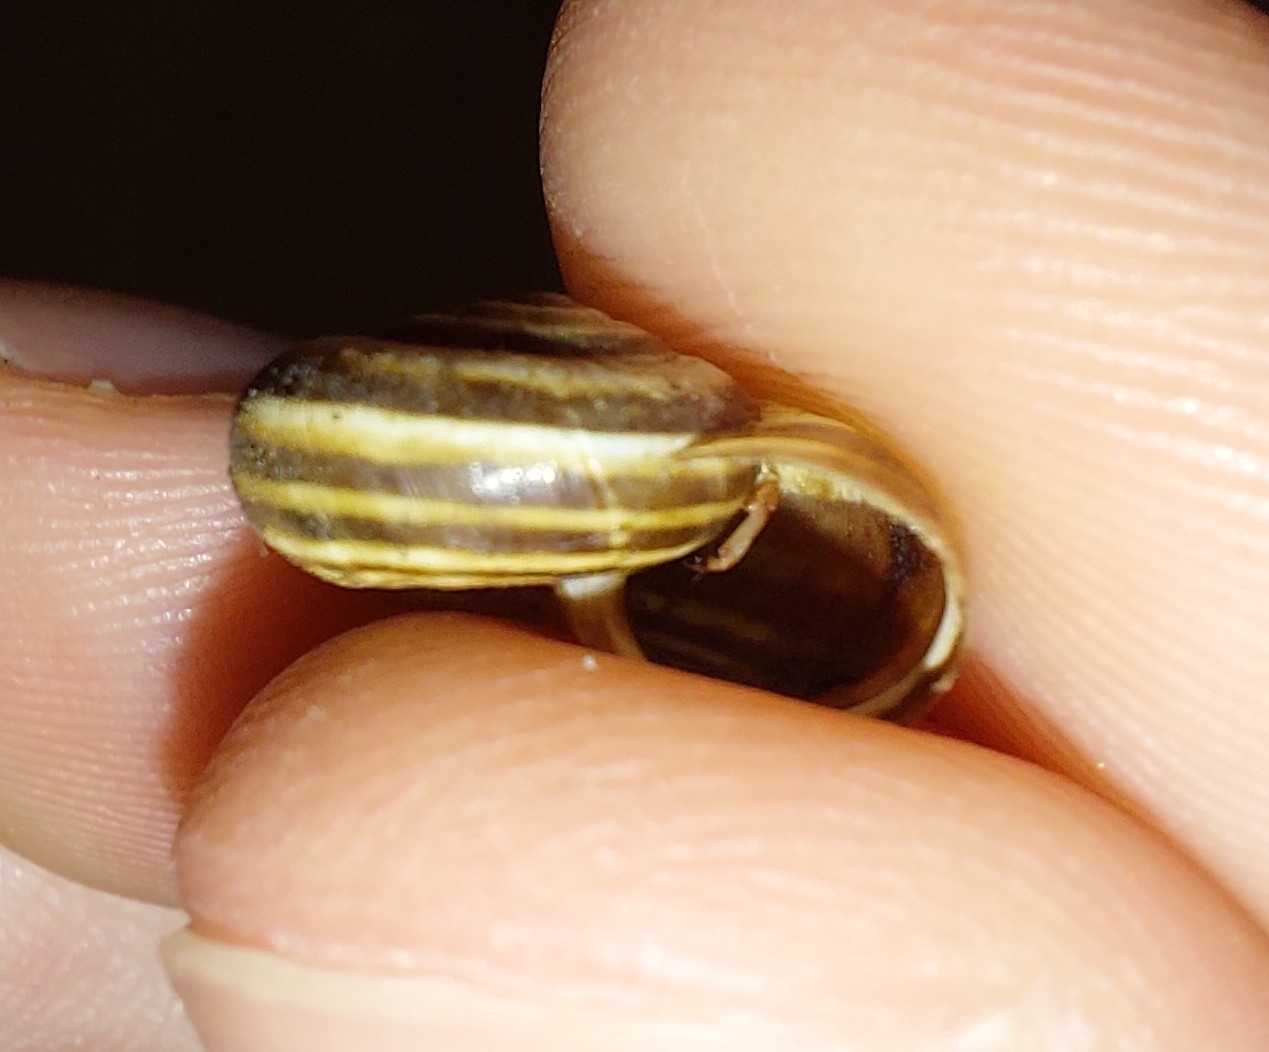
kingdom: Animalia
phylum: Mollusca
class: Gastropoda
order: Stylommatophora
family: Geomitridae
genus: Cernuella
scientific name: Cernuella neglecta
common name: Neglected dune snail
